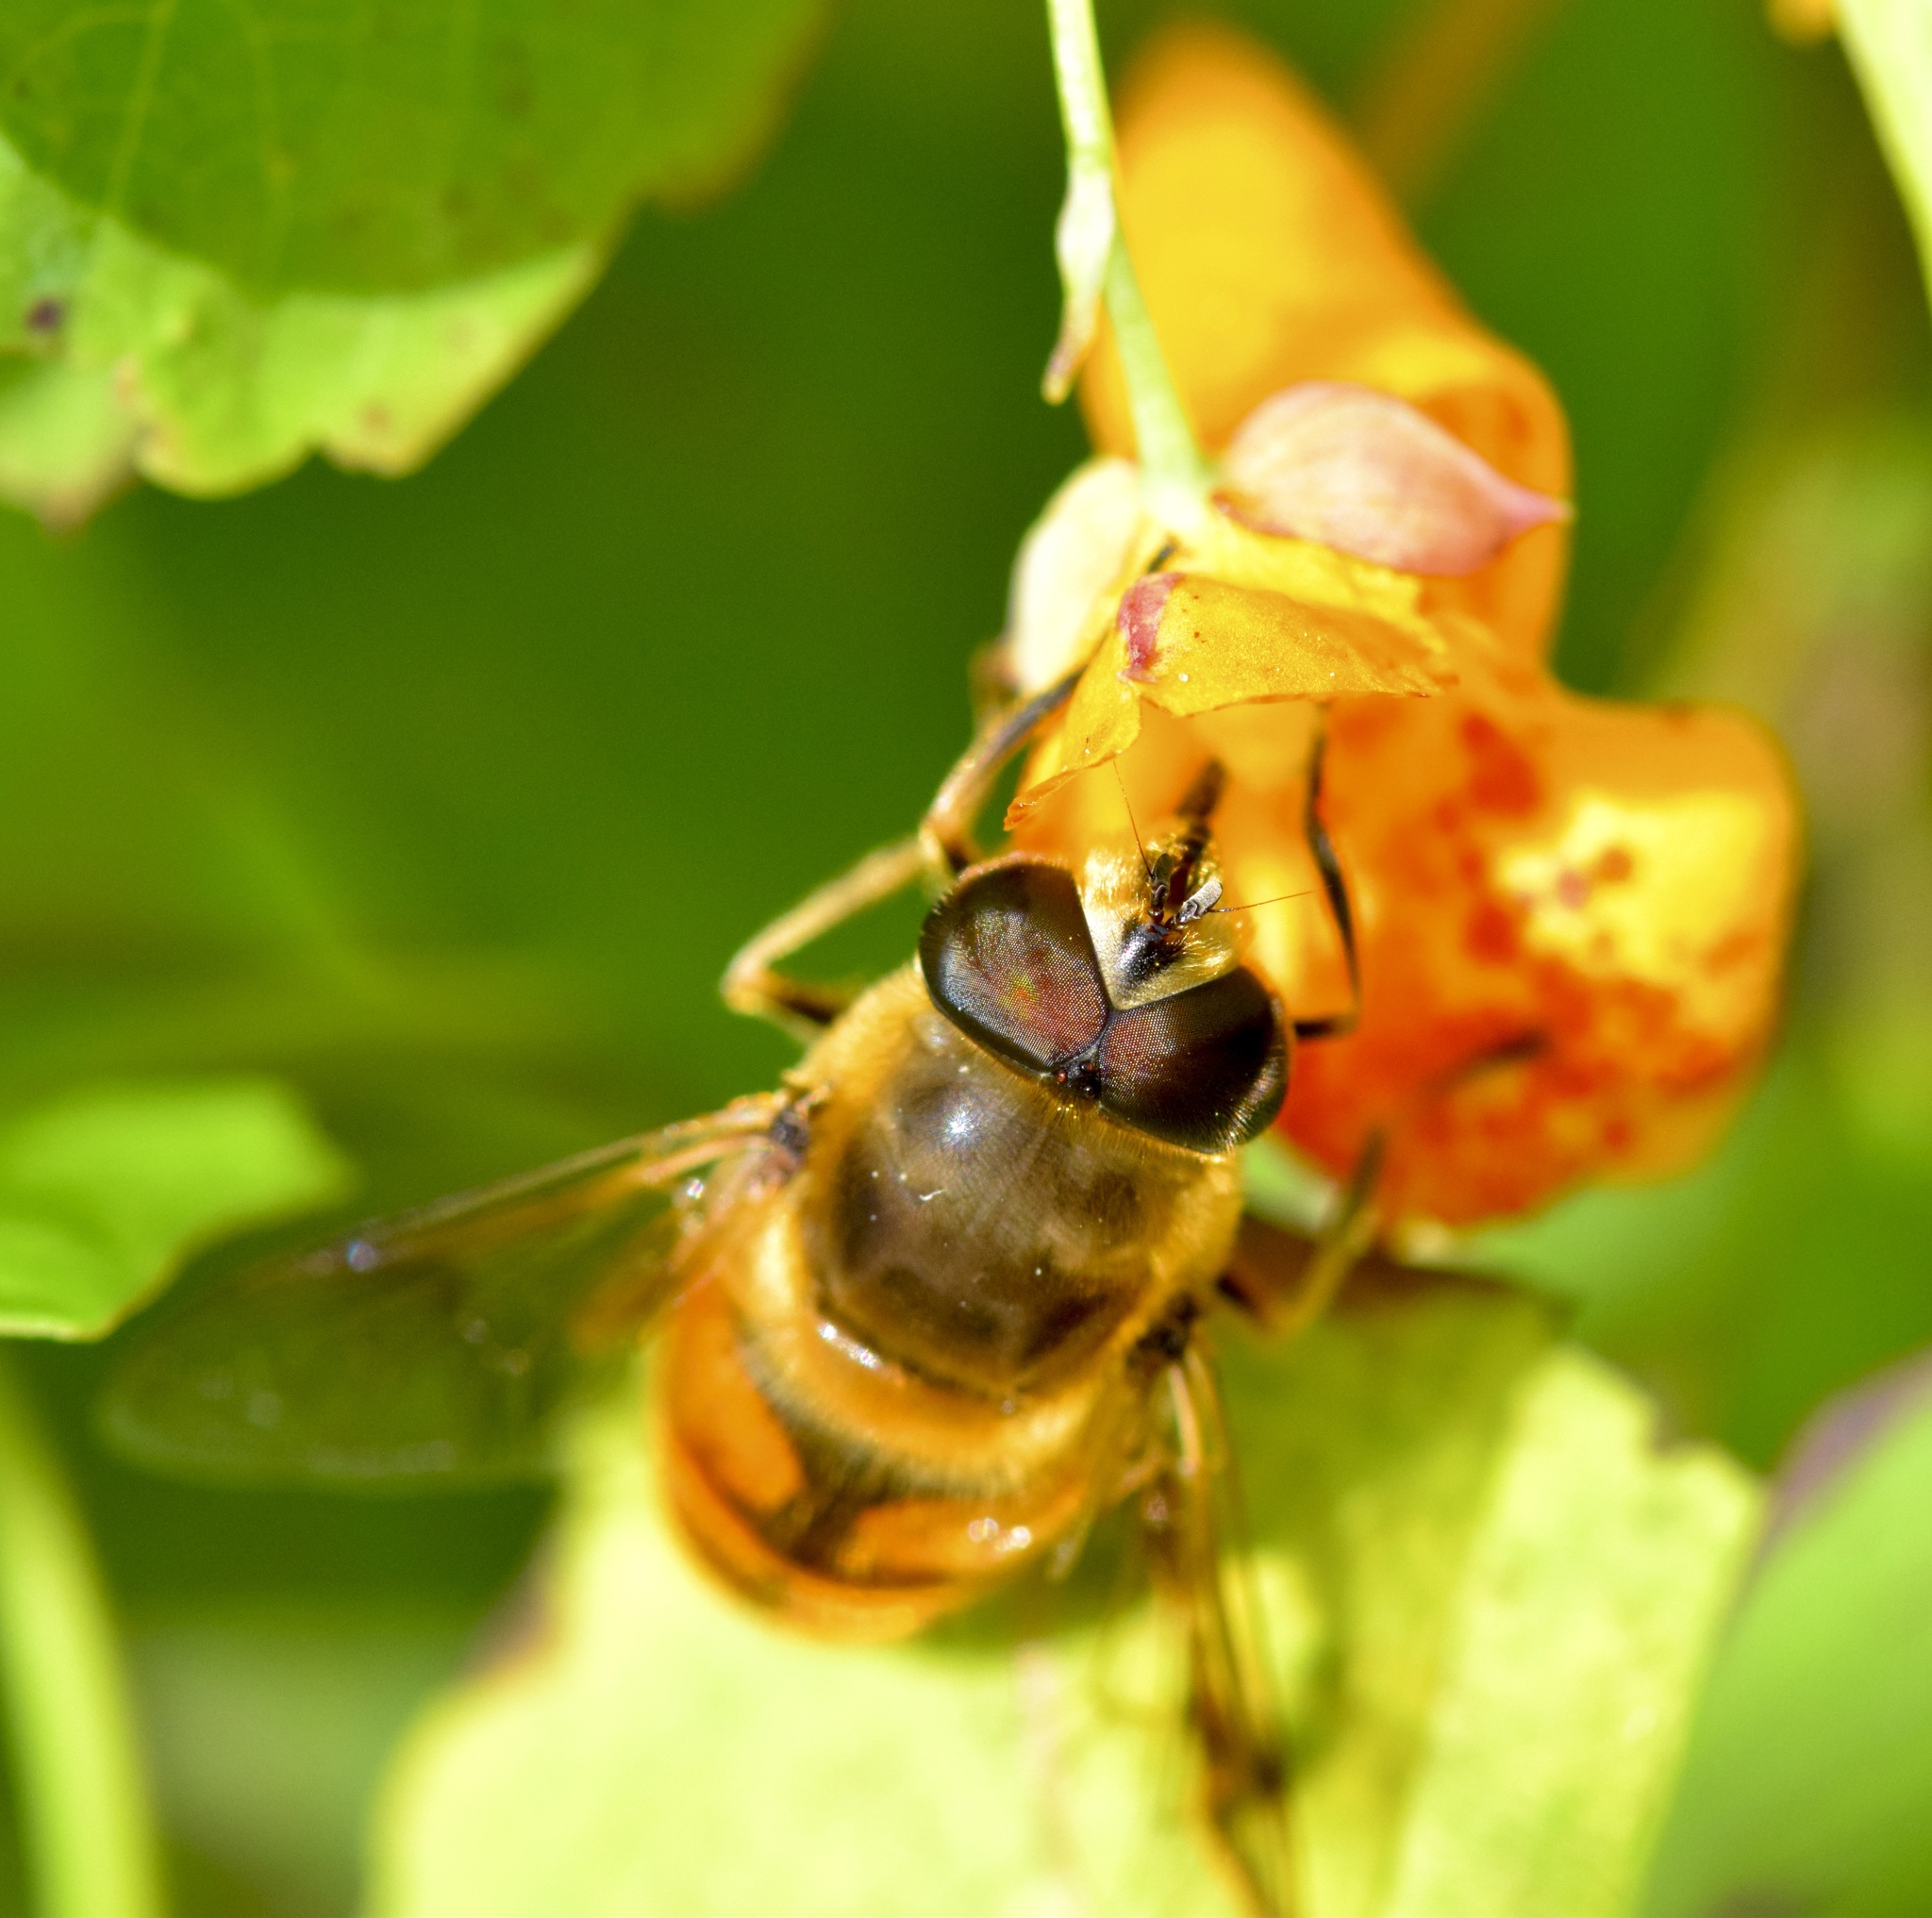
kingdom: Animalia
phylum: Arthropoda
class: Insecta
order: Diptera
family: Syrphidae
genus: Eristalis
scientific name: Eristalis tenax
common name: Drone fly
